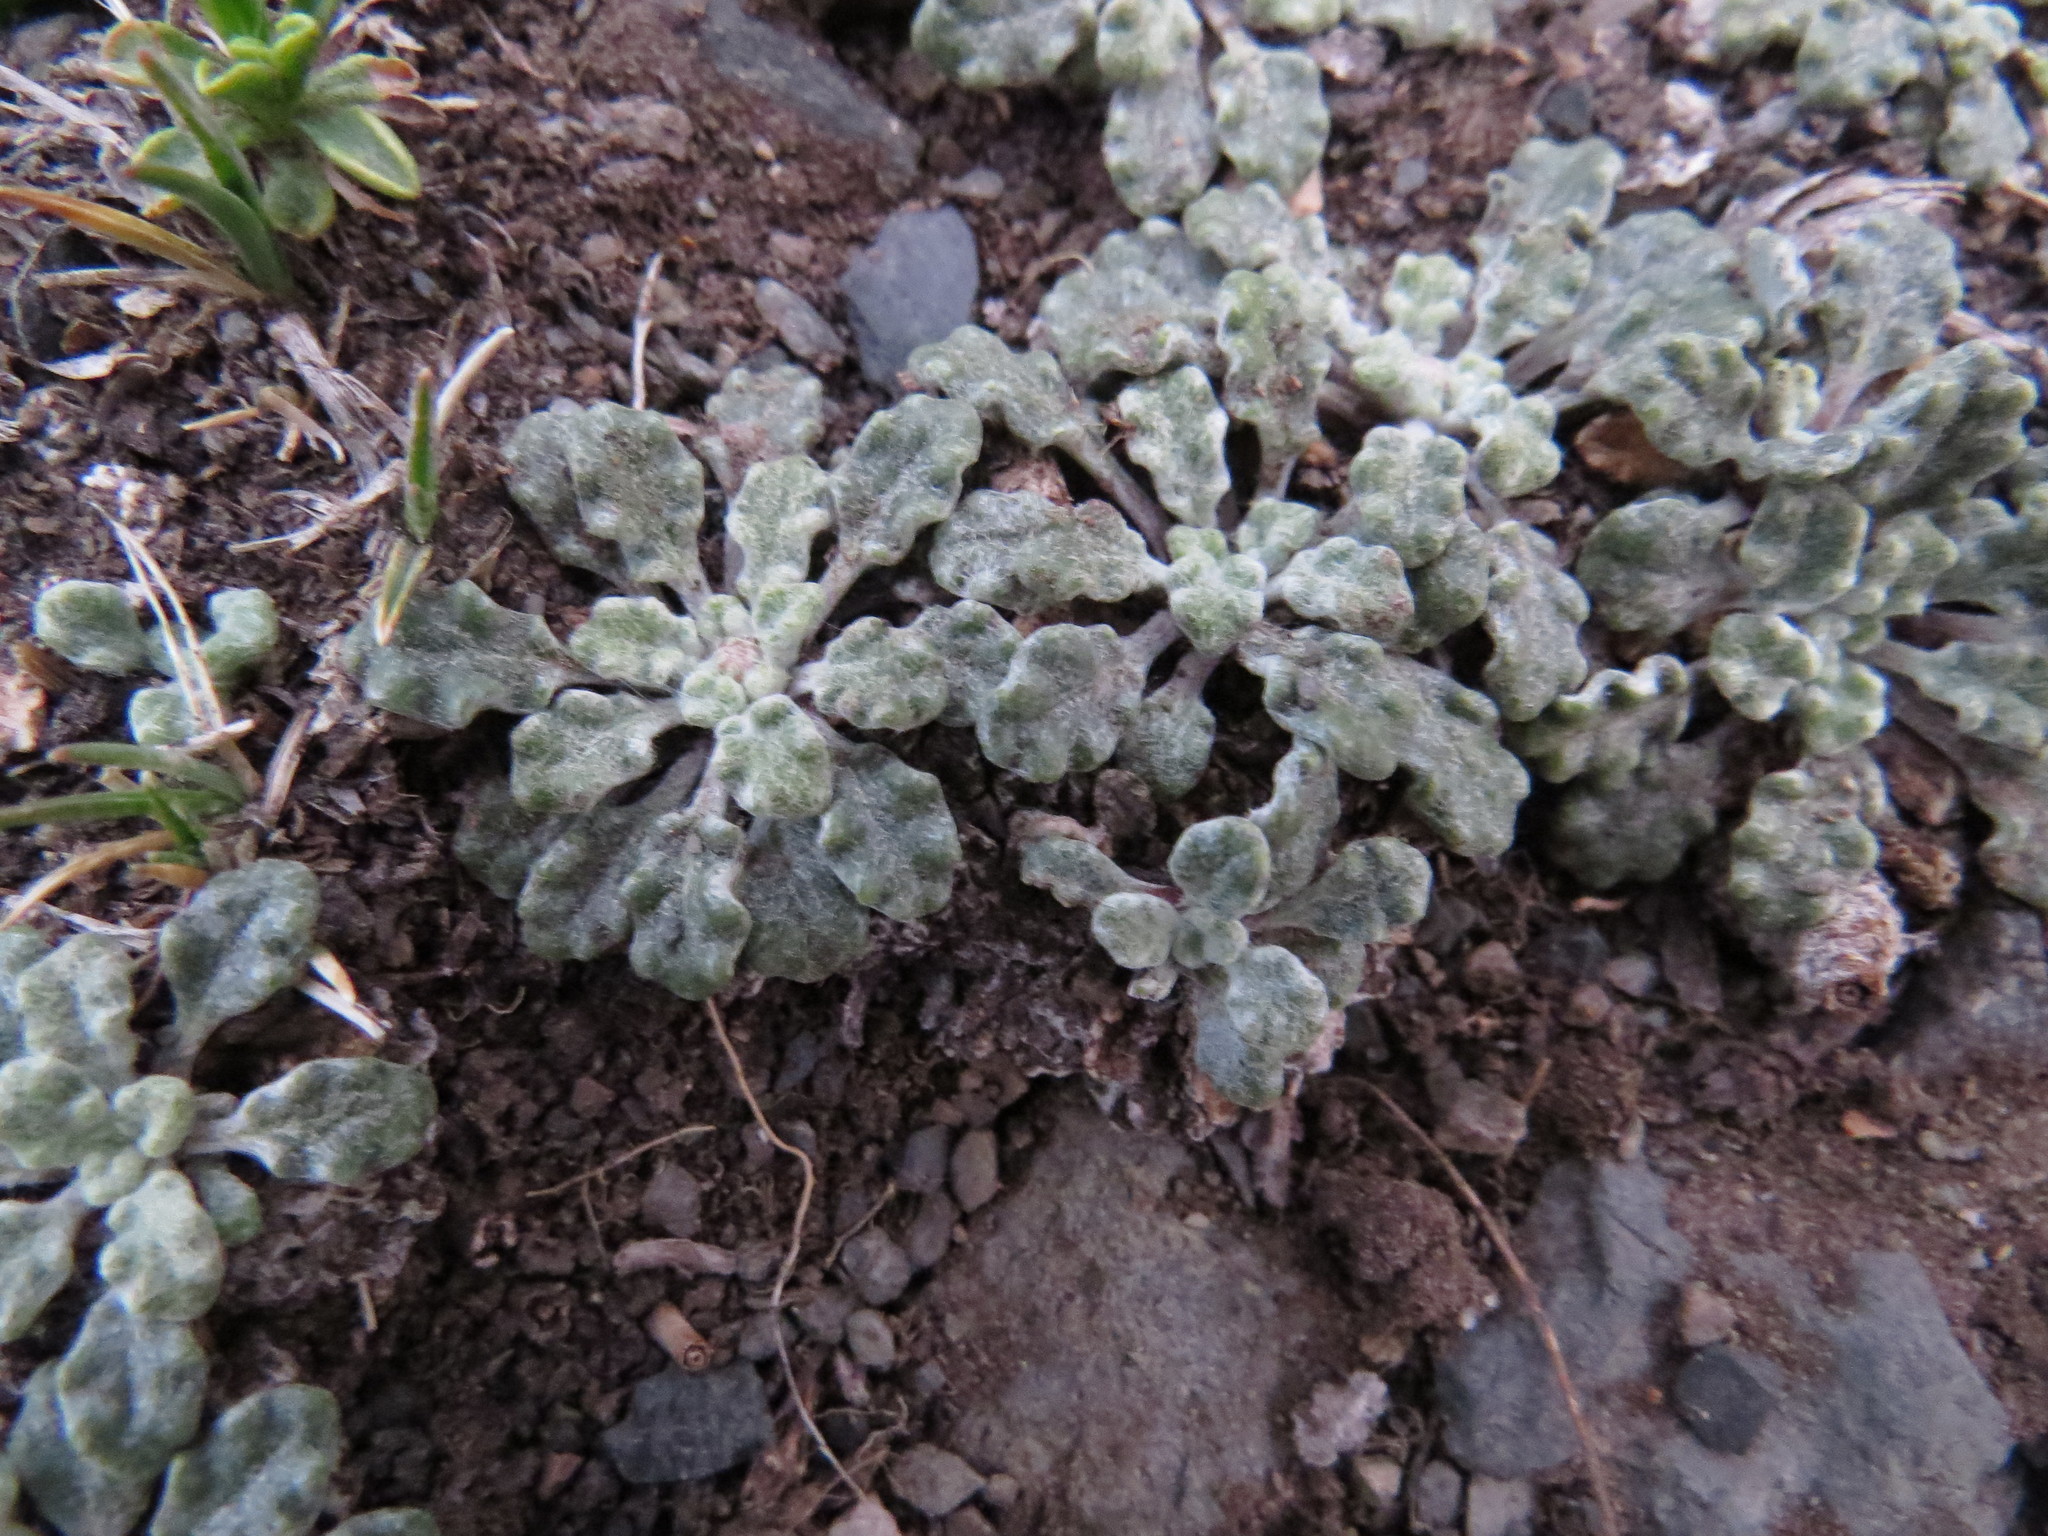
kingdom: Plantae
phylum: Tracheophyta
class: Magnoliopsida
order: Asterales
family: Asteraceae
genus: Trichocline
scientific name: Trichocline dealbata
